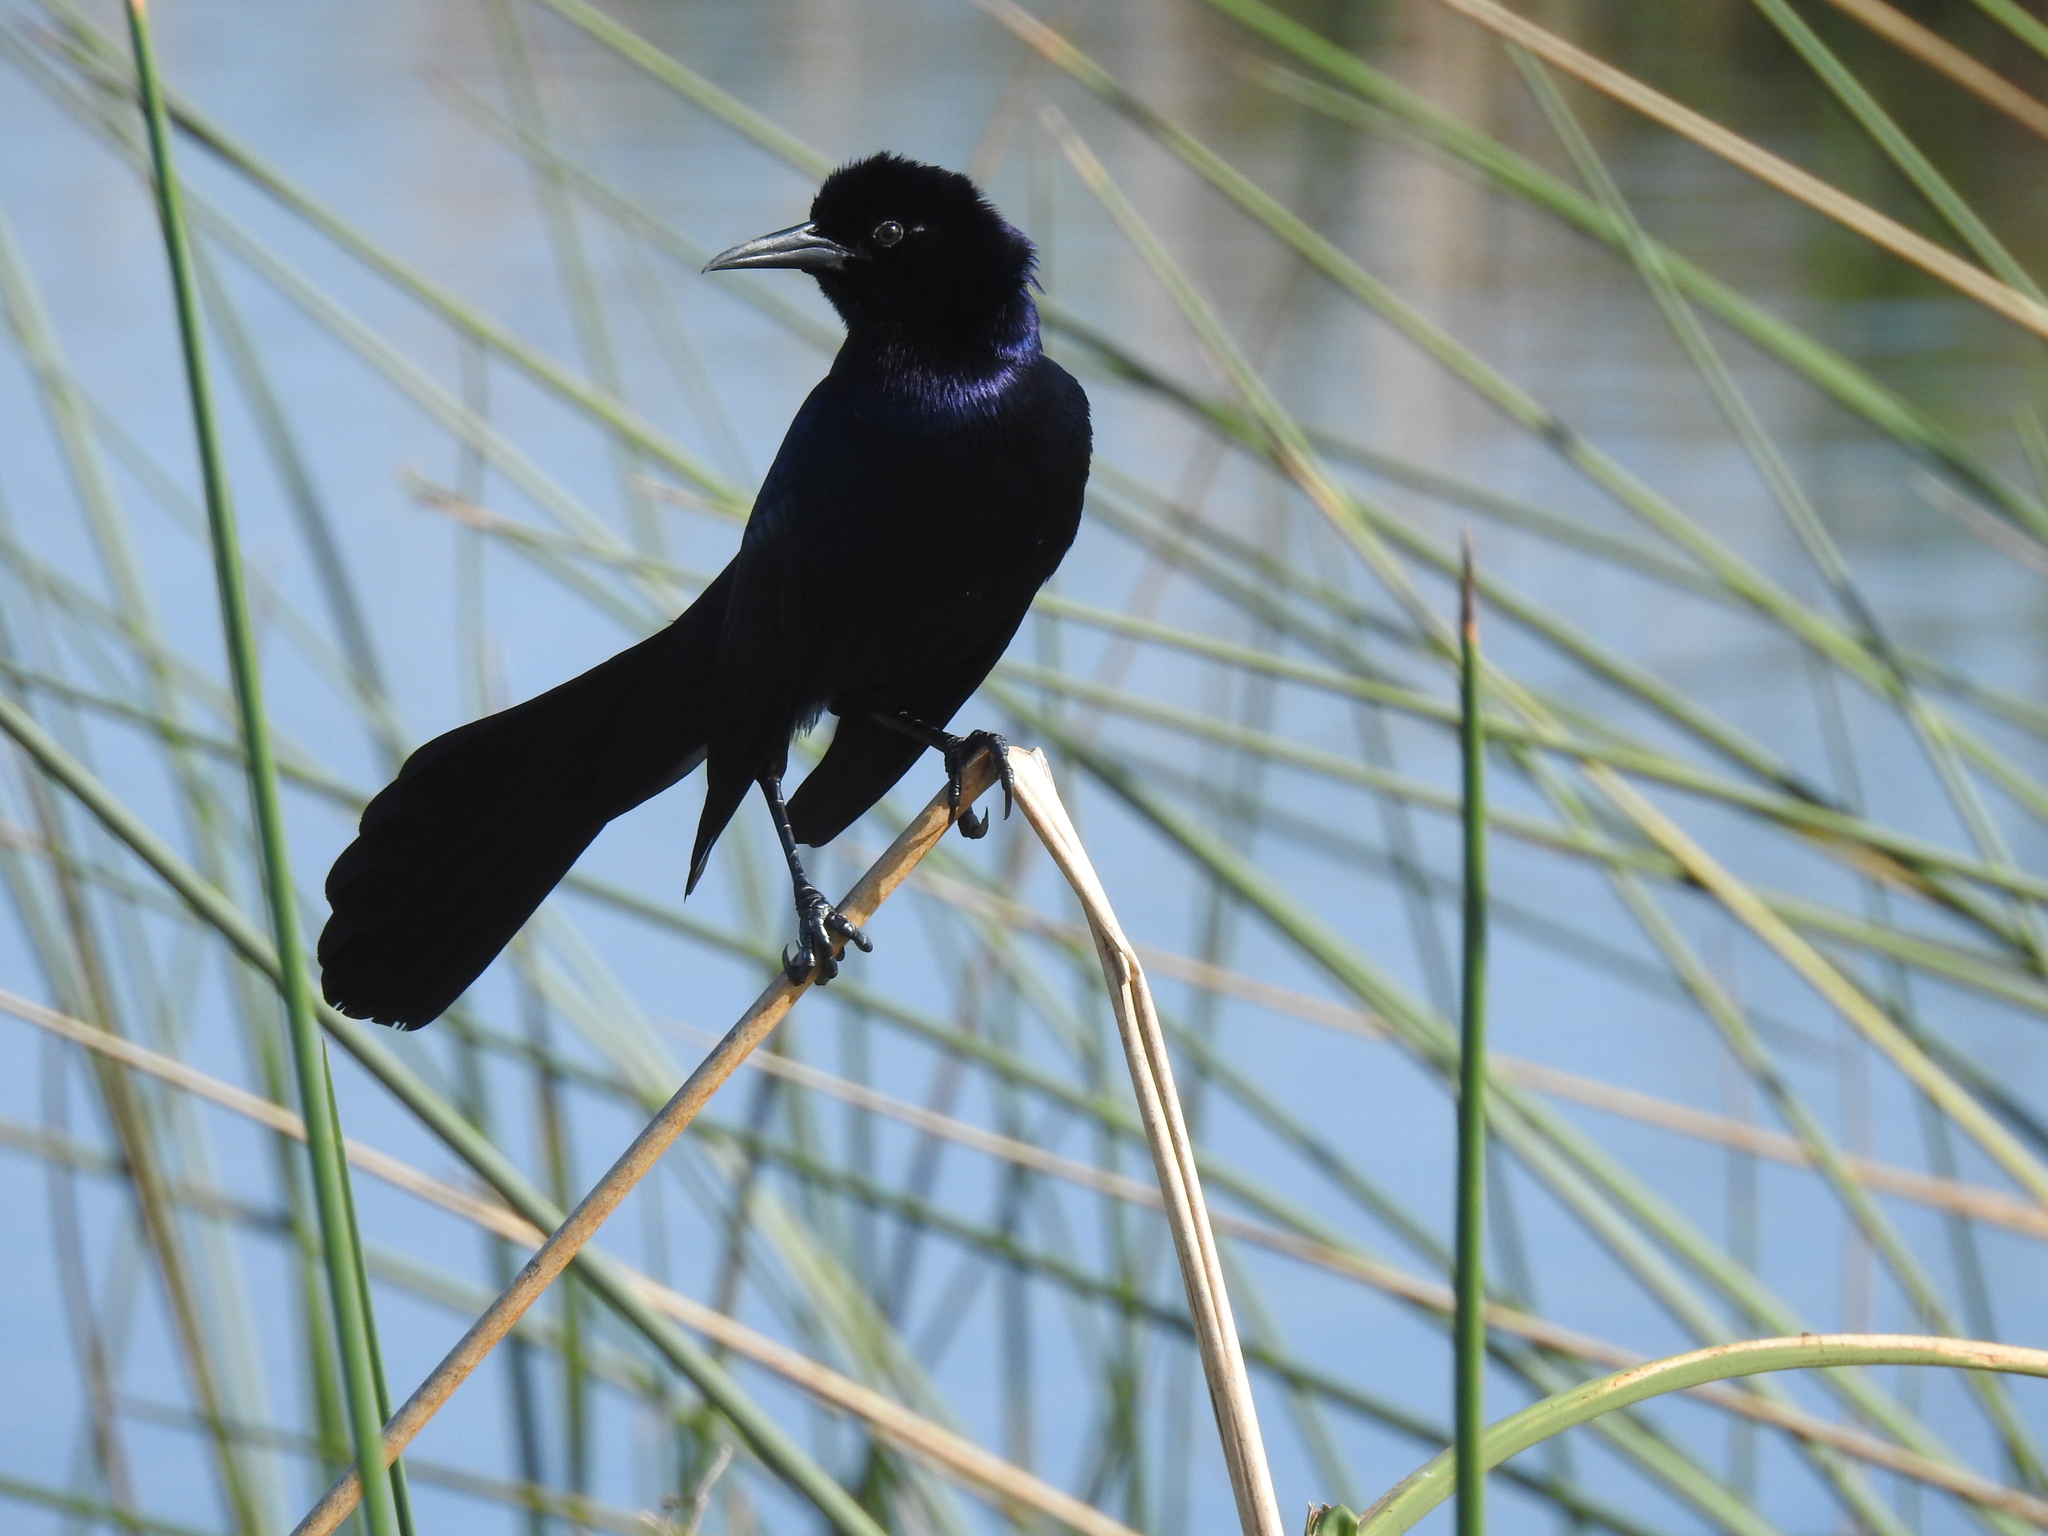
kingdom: Animalia
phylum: Chordata
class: Aves
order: Passeriformes
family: Icteridae
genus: Quiscalus
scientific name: Quiscalus major
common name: Boat-tailed grackle
